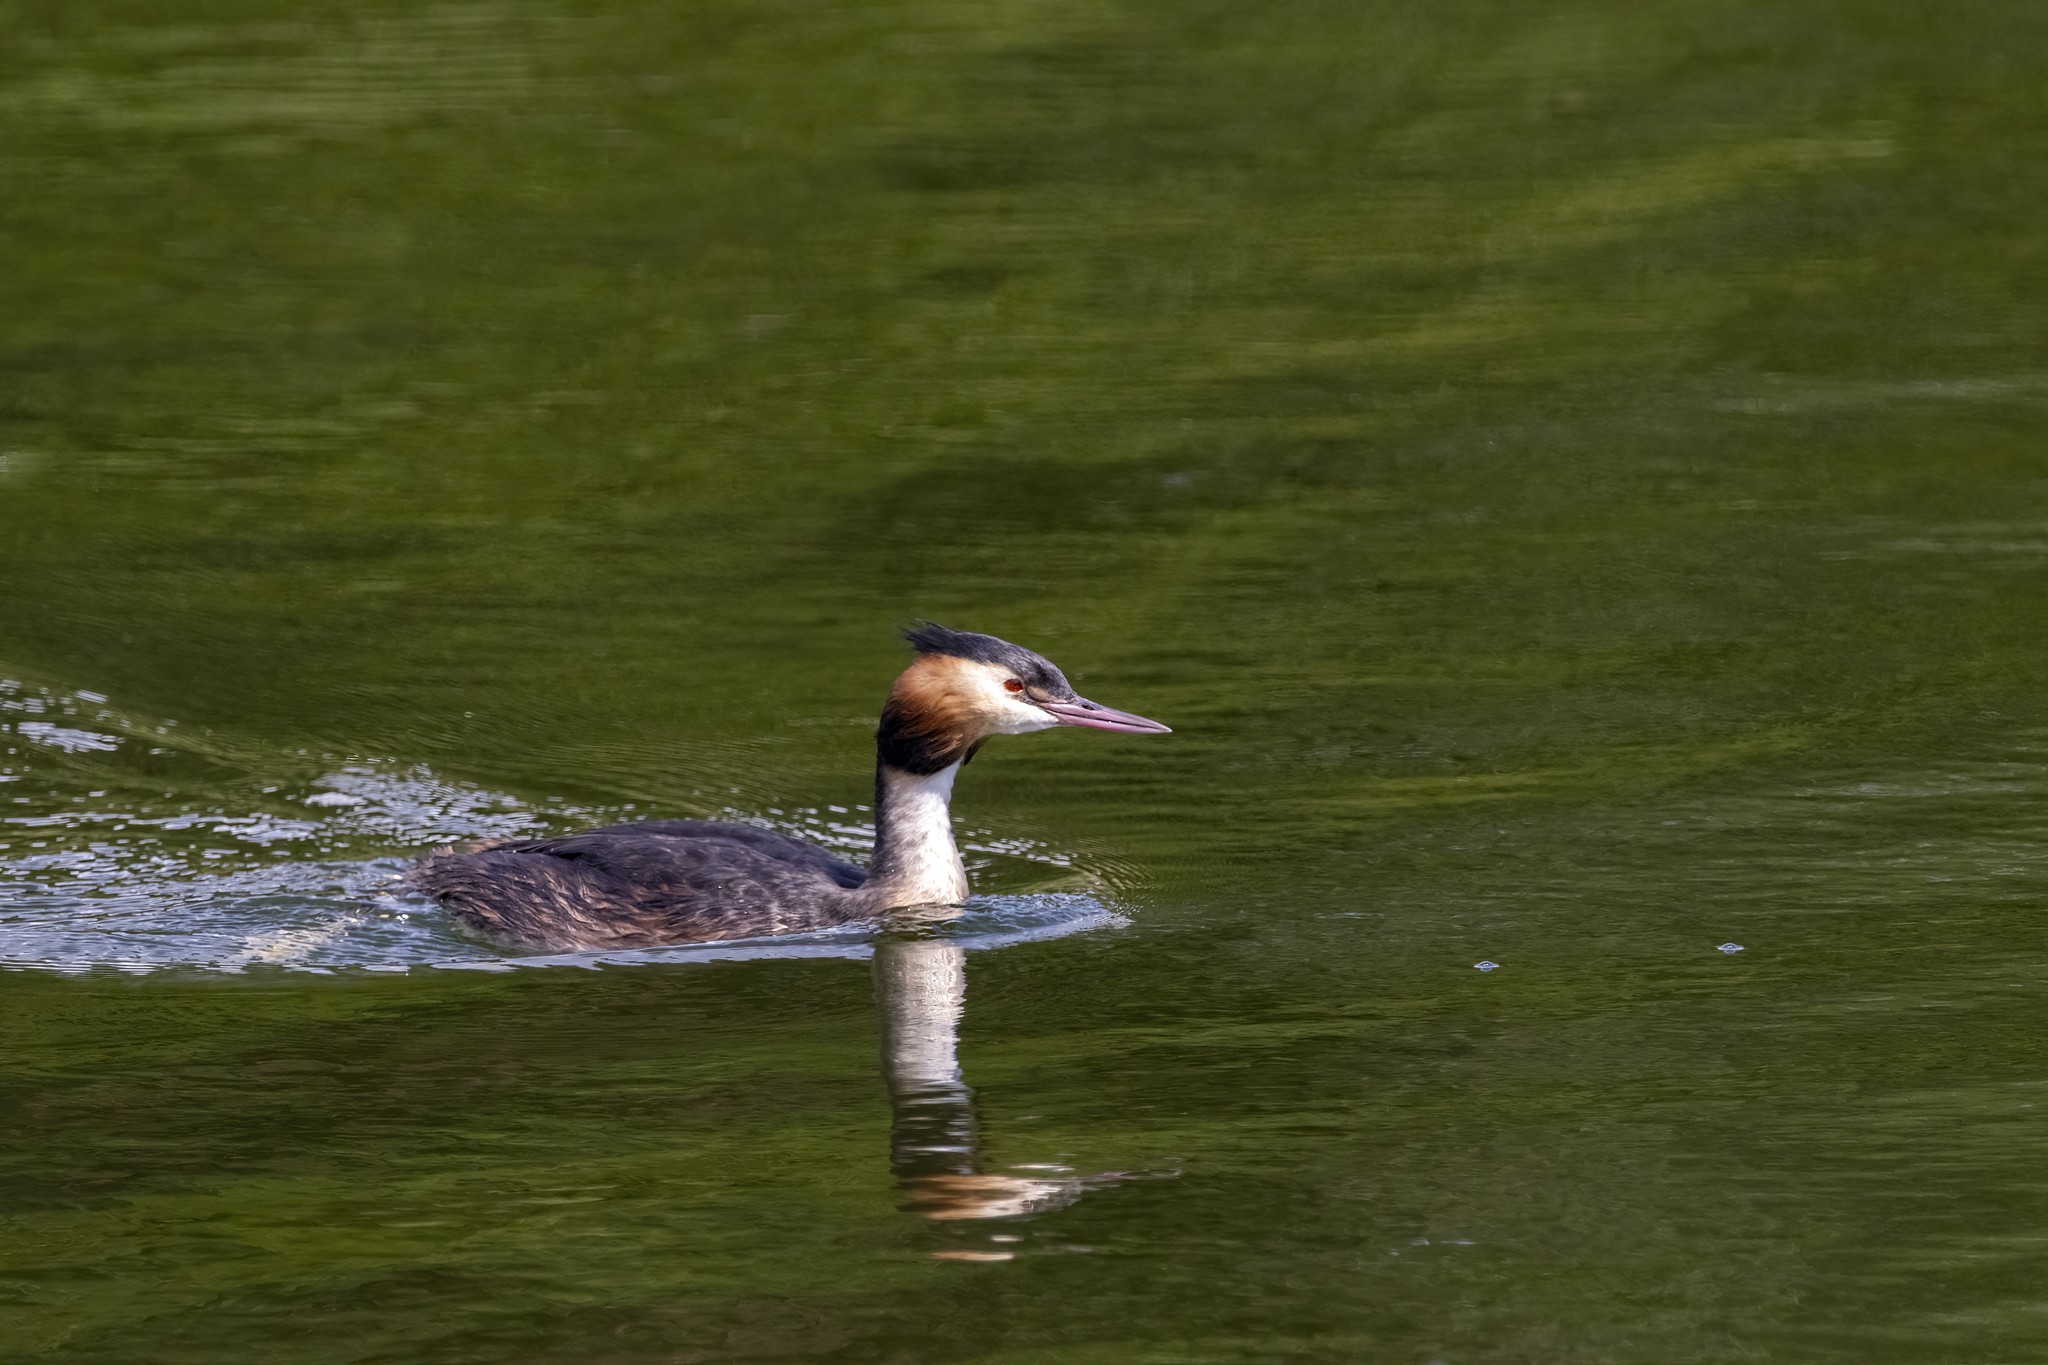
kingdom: Animalia
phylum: Chordata
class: Aves
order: Podicipediformes
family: Podicipedidae
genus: Podiceps
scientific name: Podiceps cristatus
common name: Great crested grebe
